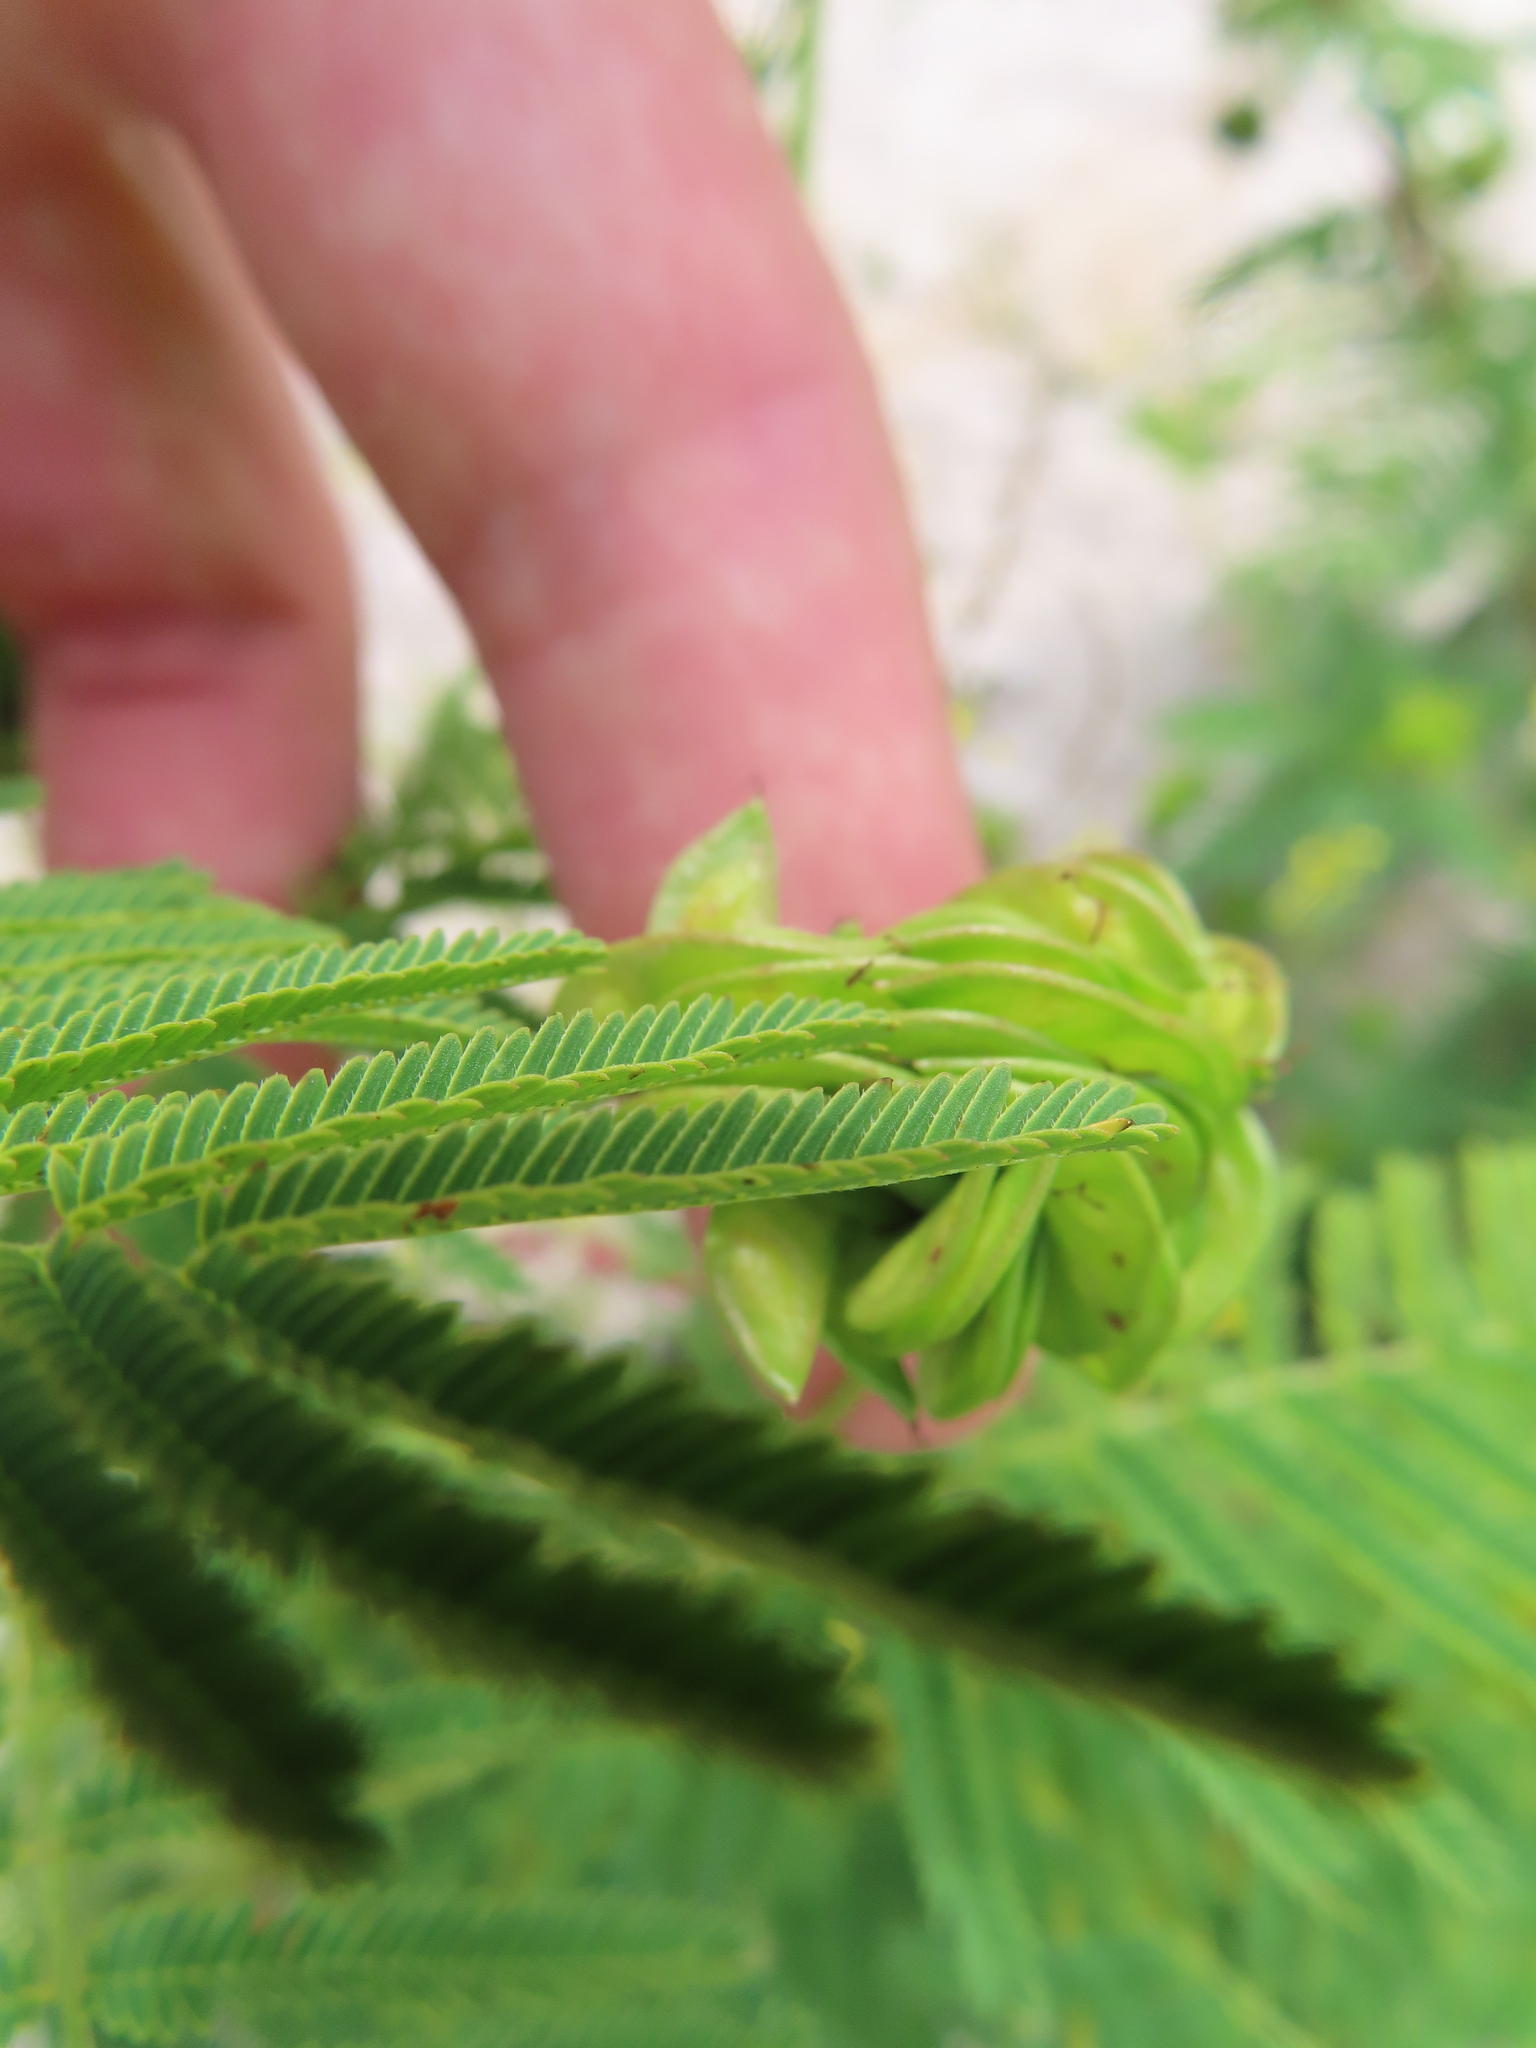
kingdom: Plantae
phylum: Tracheophyta
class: Magnoliopsida
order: Fabales
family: Fabaceae
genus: Desmanthus
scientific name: Desmanthus illinoensis
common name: Illinois bundle-flower
